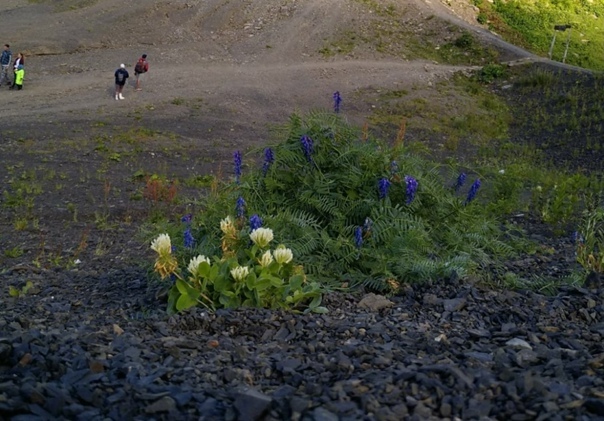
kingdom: Plantae
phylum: Tracheophyta
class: Magnoliopsida
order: Fabales
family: Fabaceae
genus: Vicia
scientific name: Vicia cracca
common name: Bird vetch
